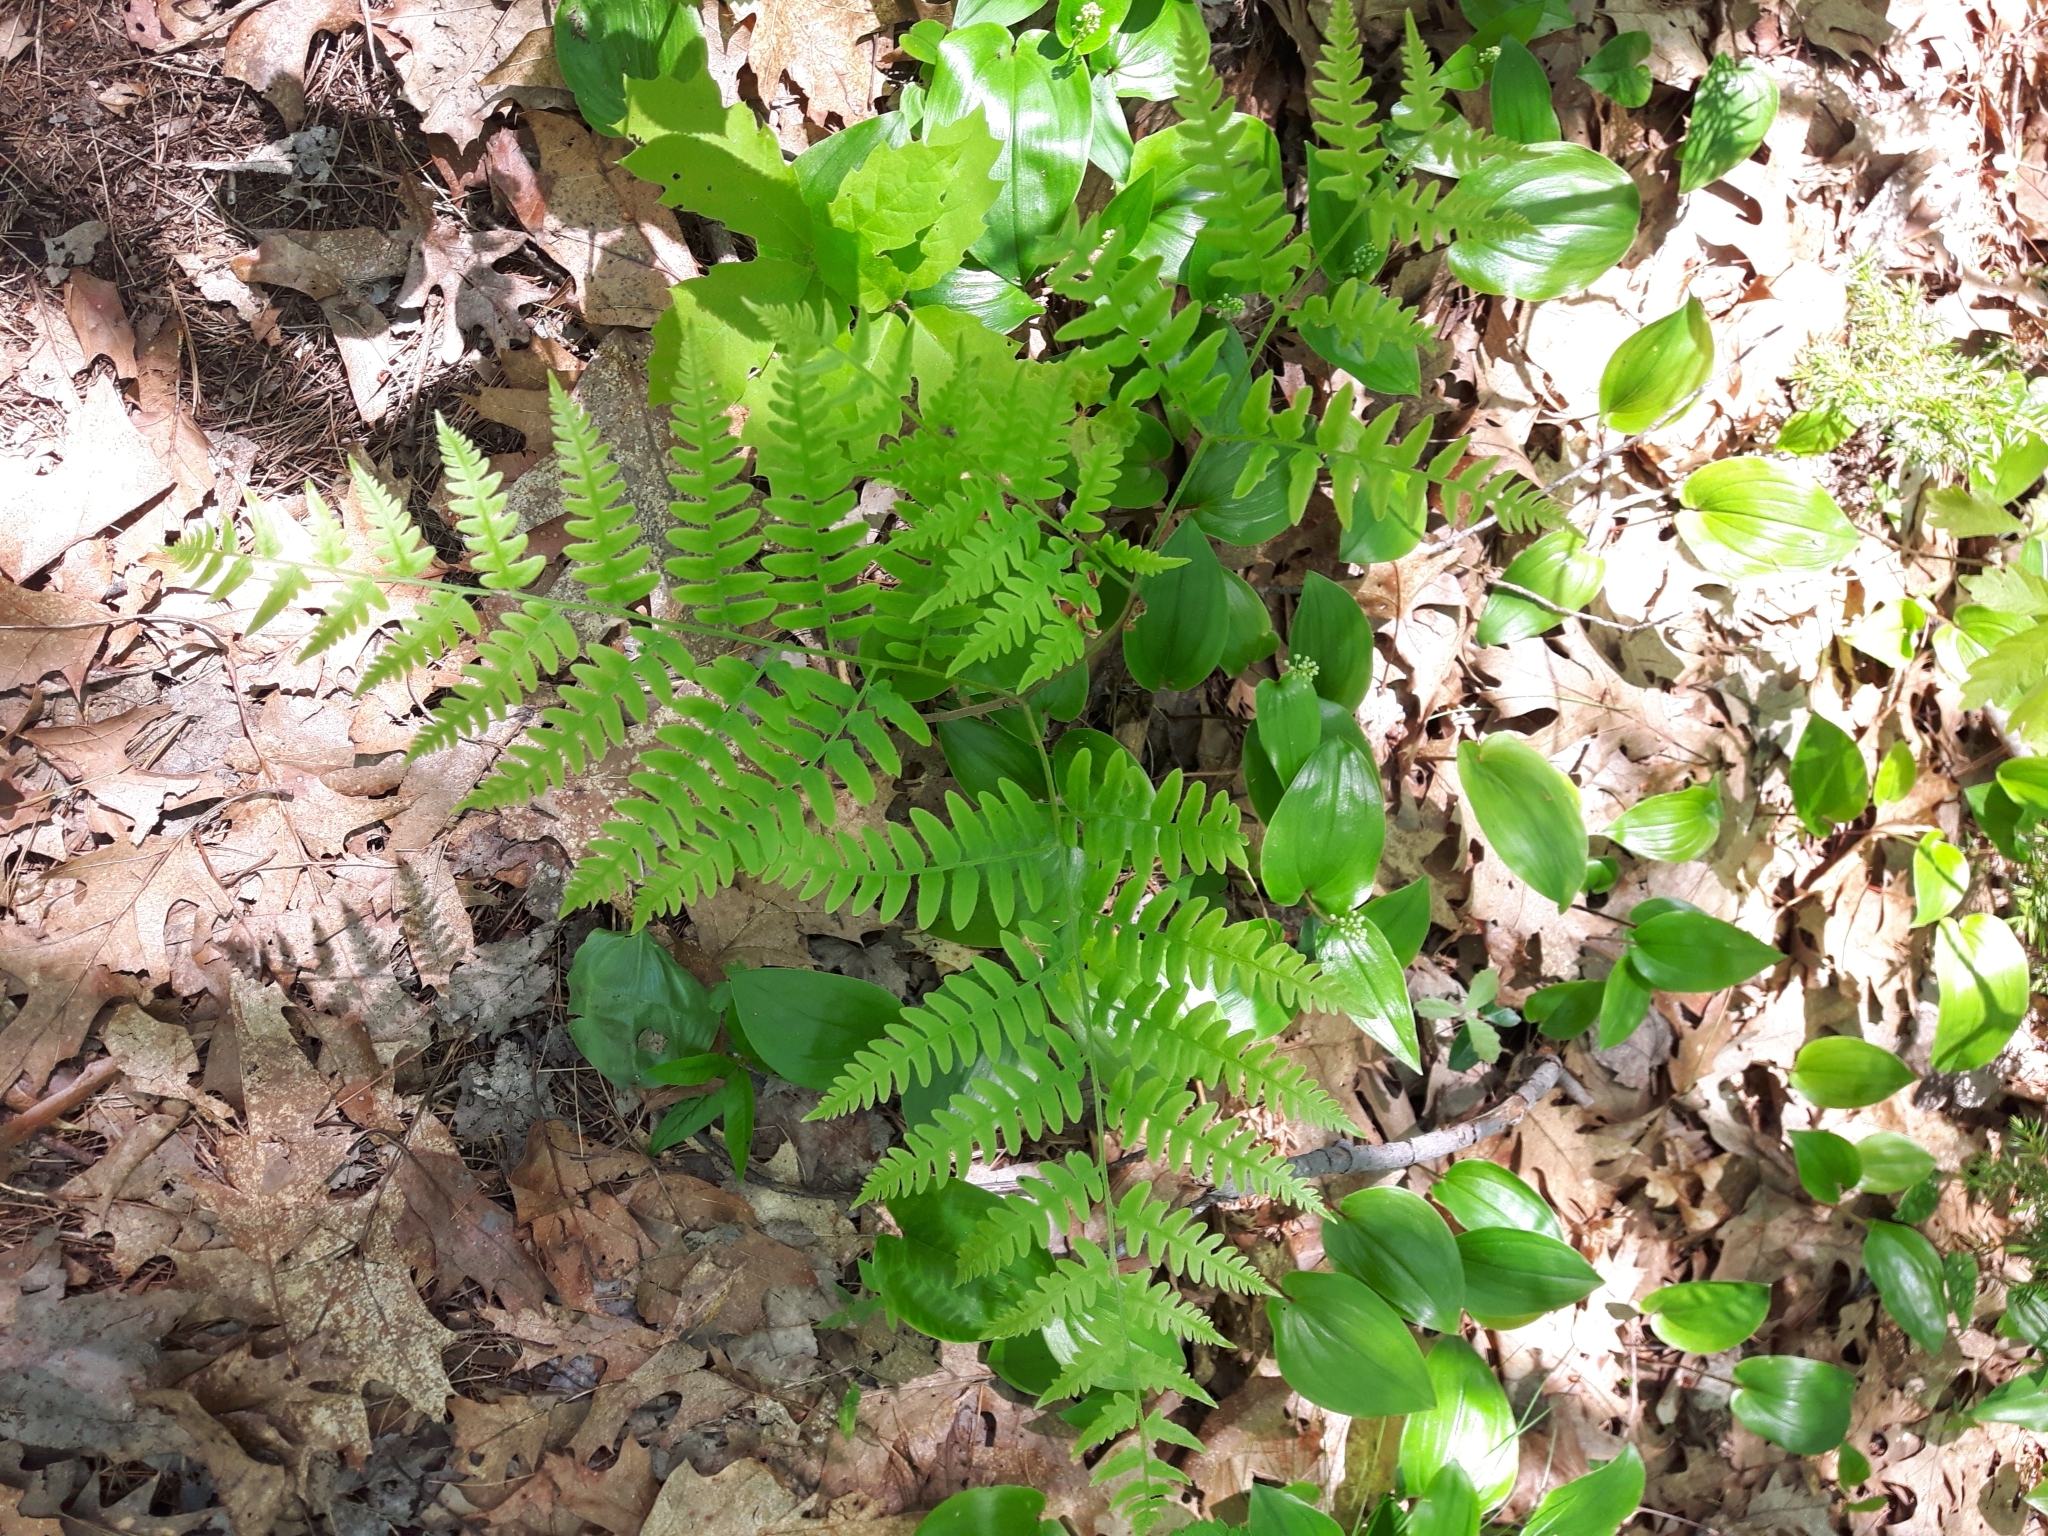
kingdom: Plantae
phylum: Tracheophyta
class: Polypodiopsida
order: Polypodiales
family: Dennstaedtiaceae
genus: Pteridium
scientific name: Pteridium aquilinum
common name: Bracken
